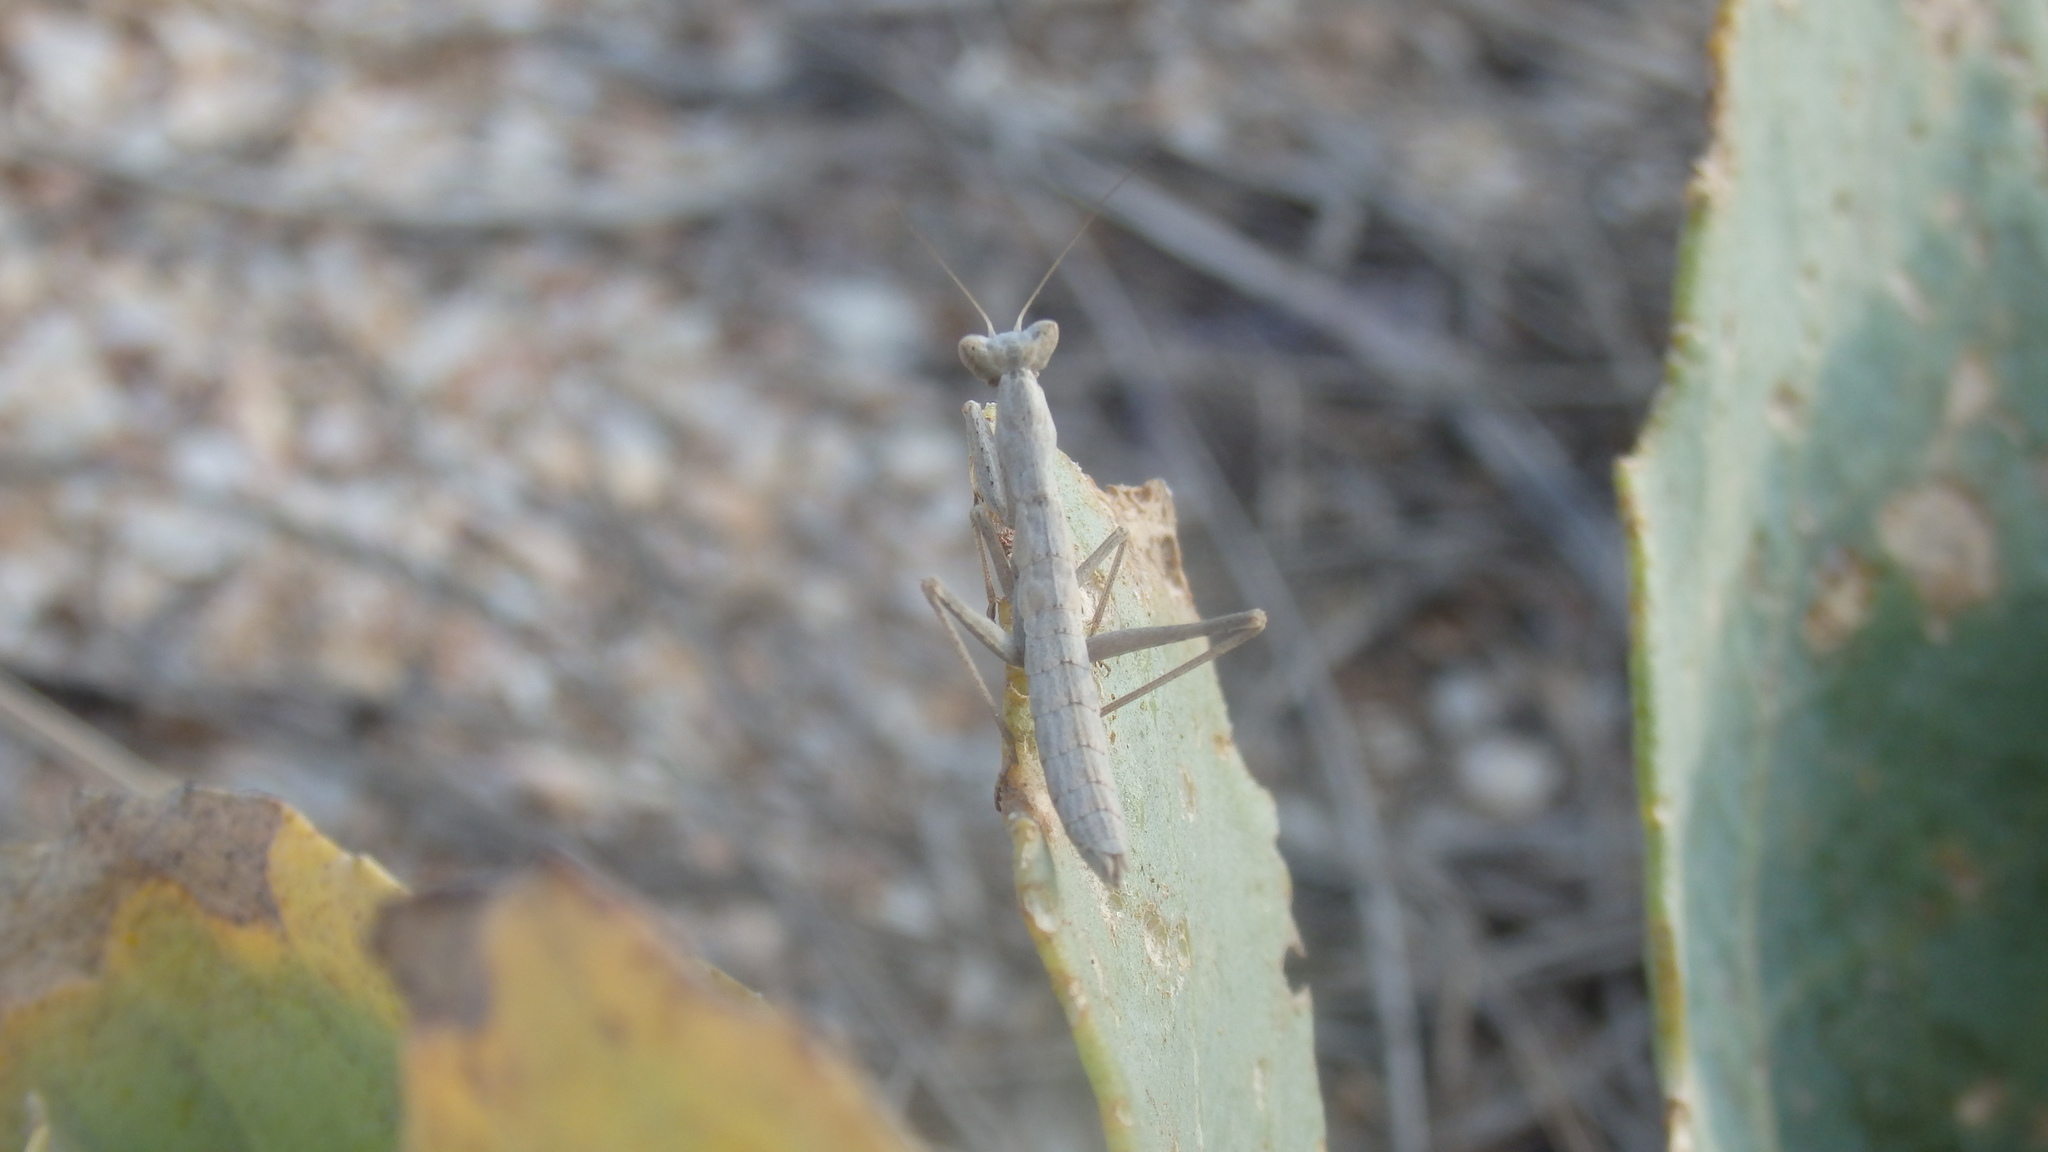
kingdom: Animalia
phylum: Arthropoda
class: Insecta
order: Mantodea
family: Amelidae
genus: Ameles
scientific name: Ameles heldreichi
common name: Heldreich's dwarf mantis
